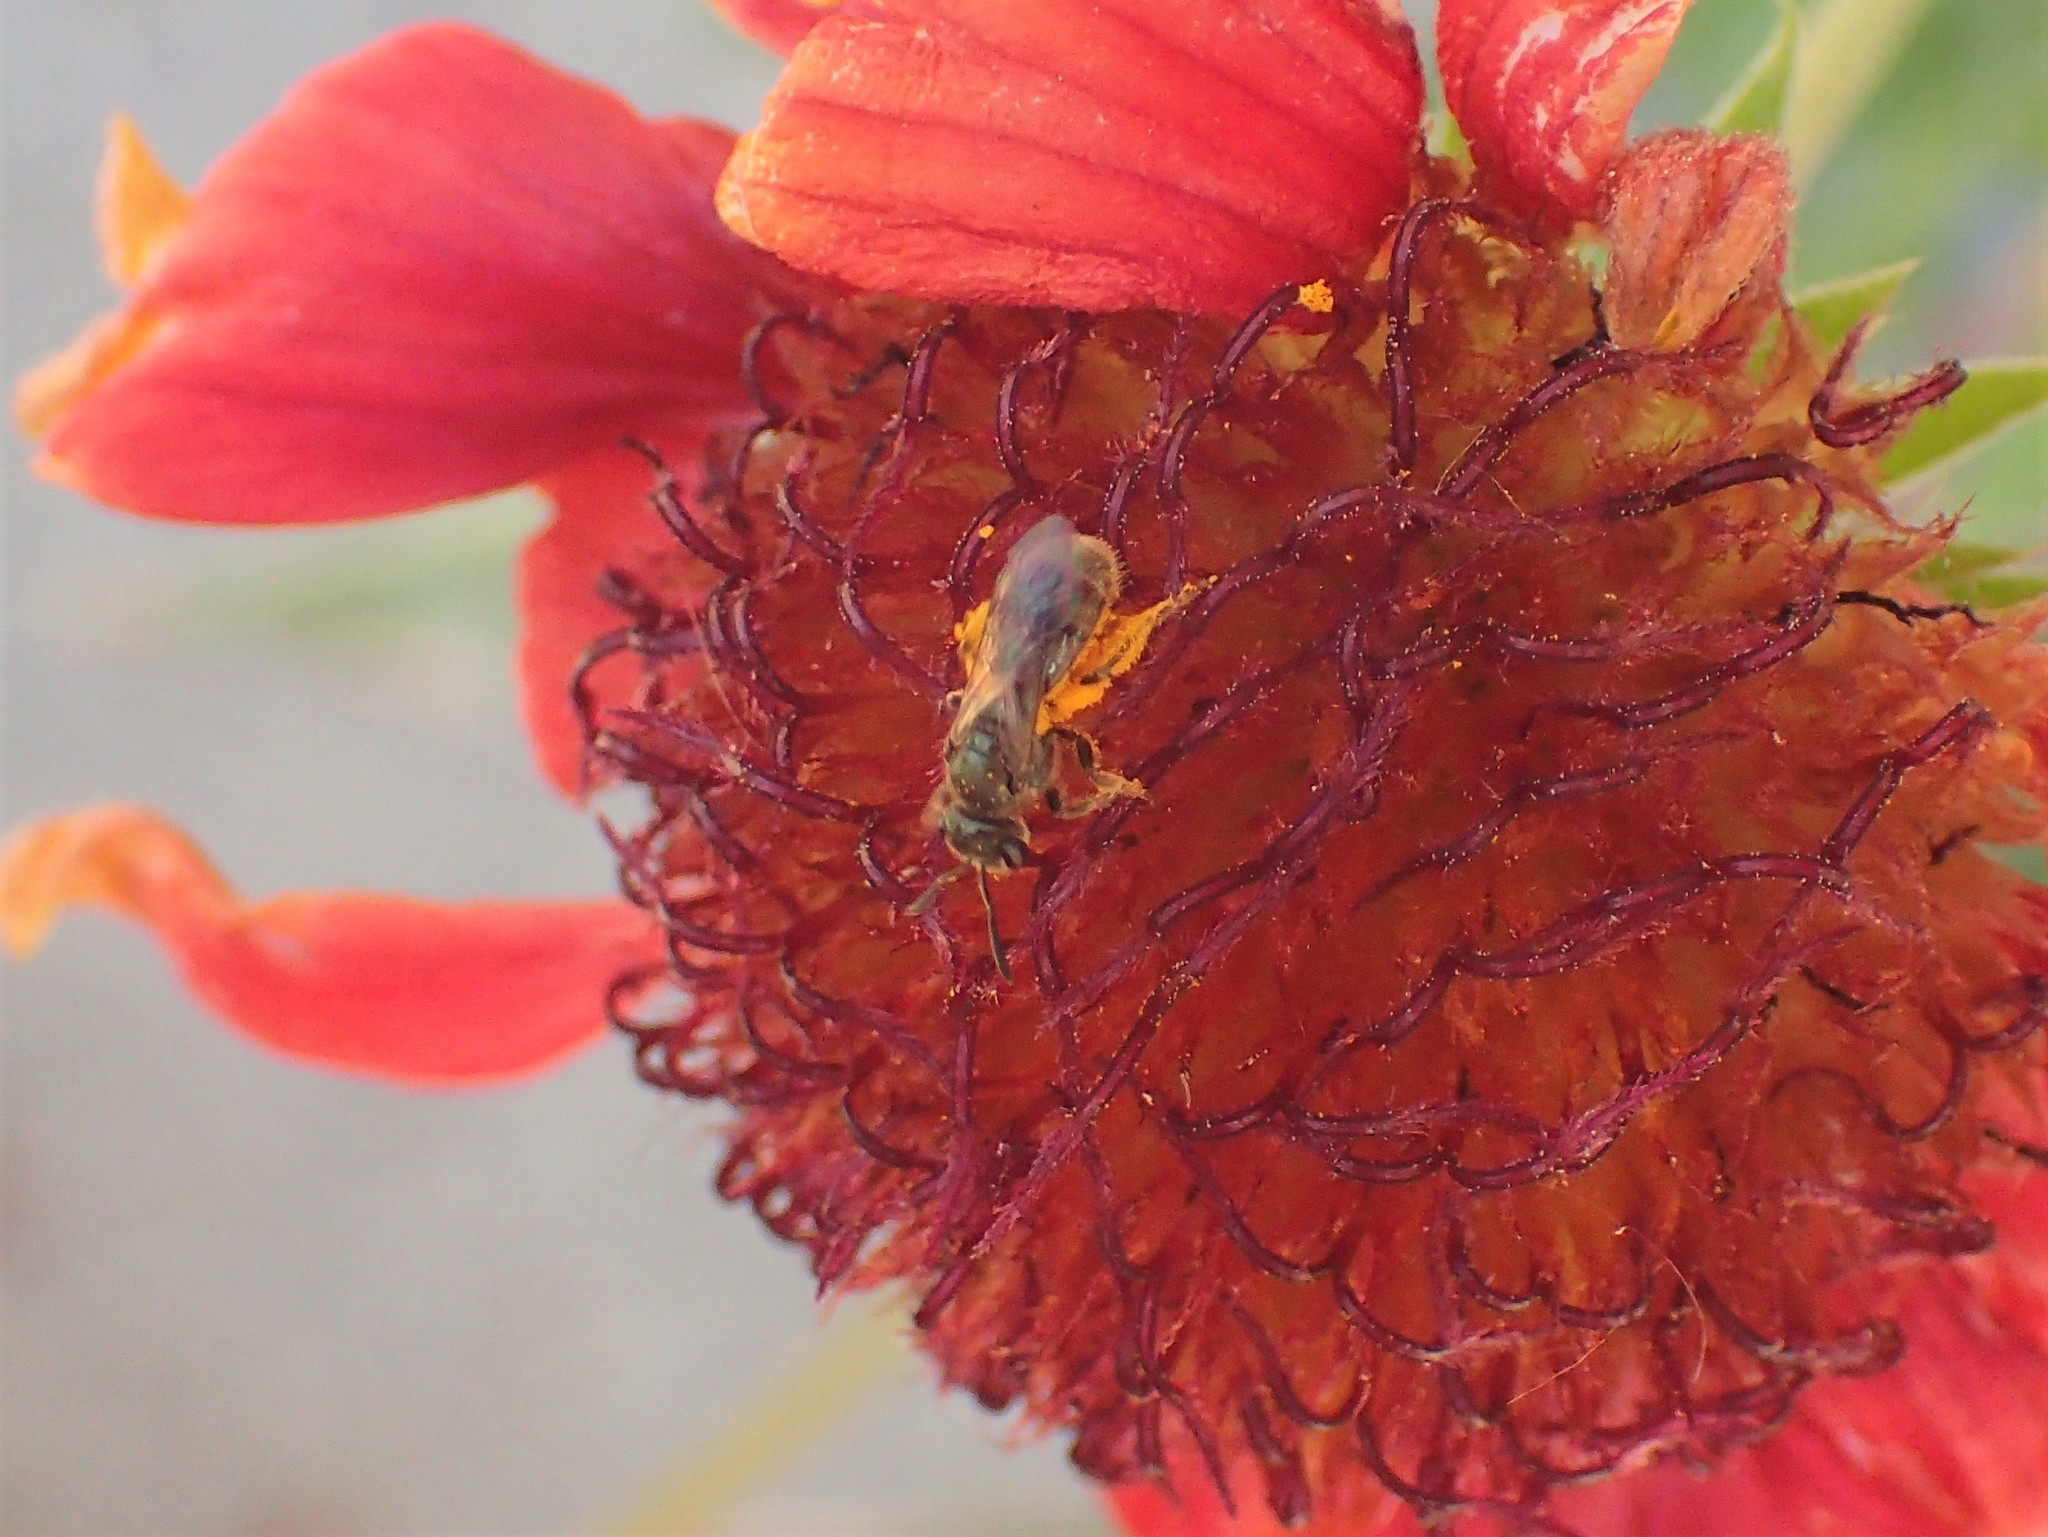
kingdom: Animalia
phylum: Arthropoda
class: Insecta
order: Hymenoptera
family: Halictidae
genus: Dialictus
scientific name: Dialictus
